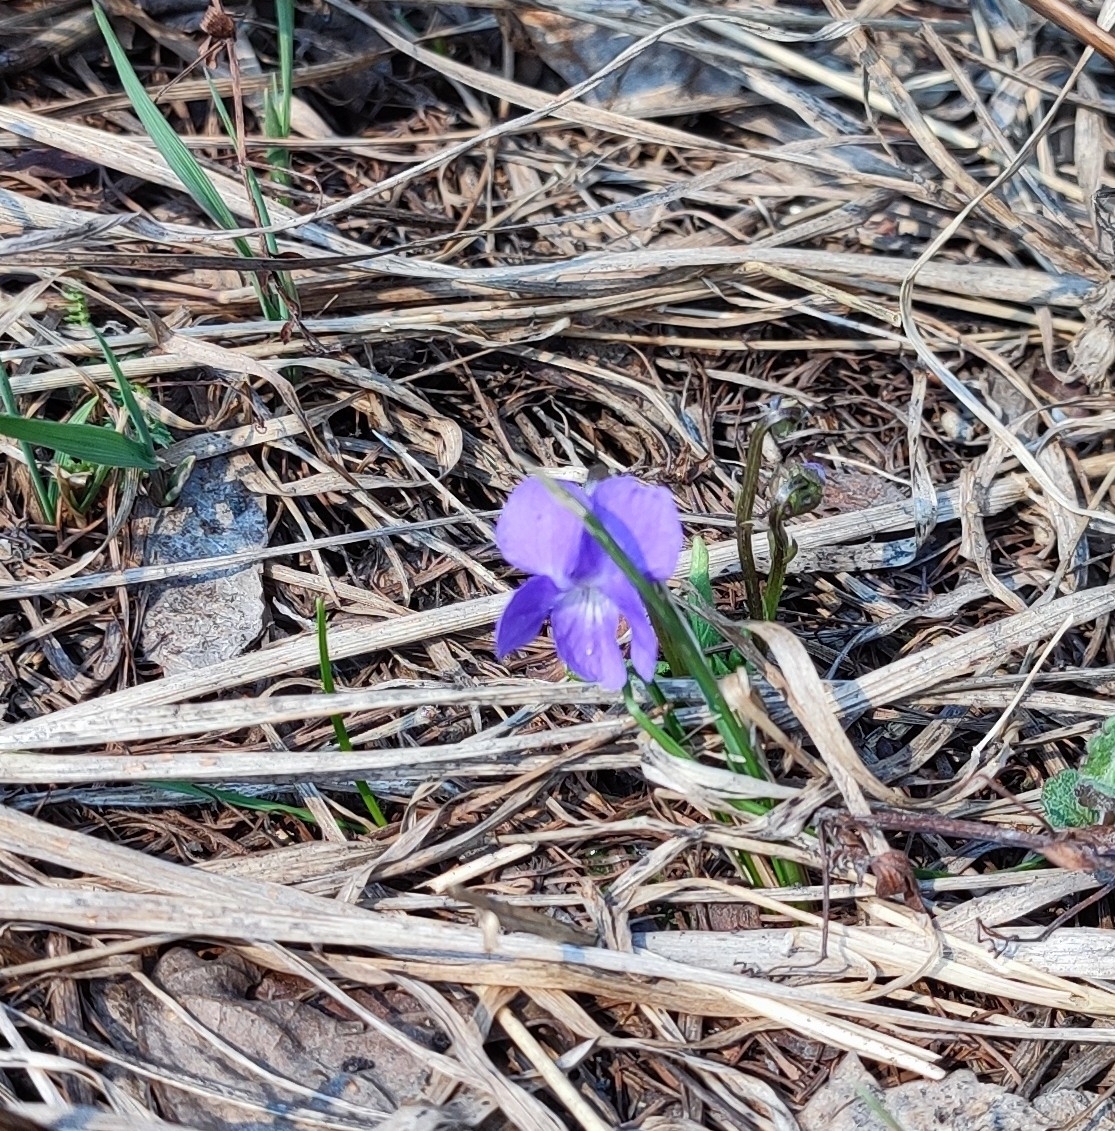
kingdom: Plantae
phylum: Tracheophyta
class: Magnoliopsida
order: Malpighiales
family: Violaceae
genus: Viola
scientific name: Viola hirta
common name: Hairy violet
